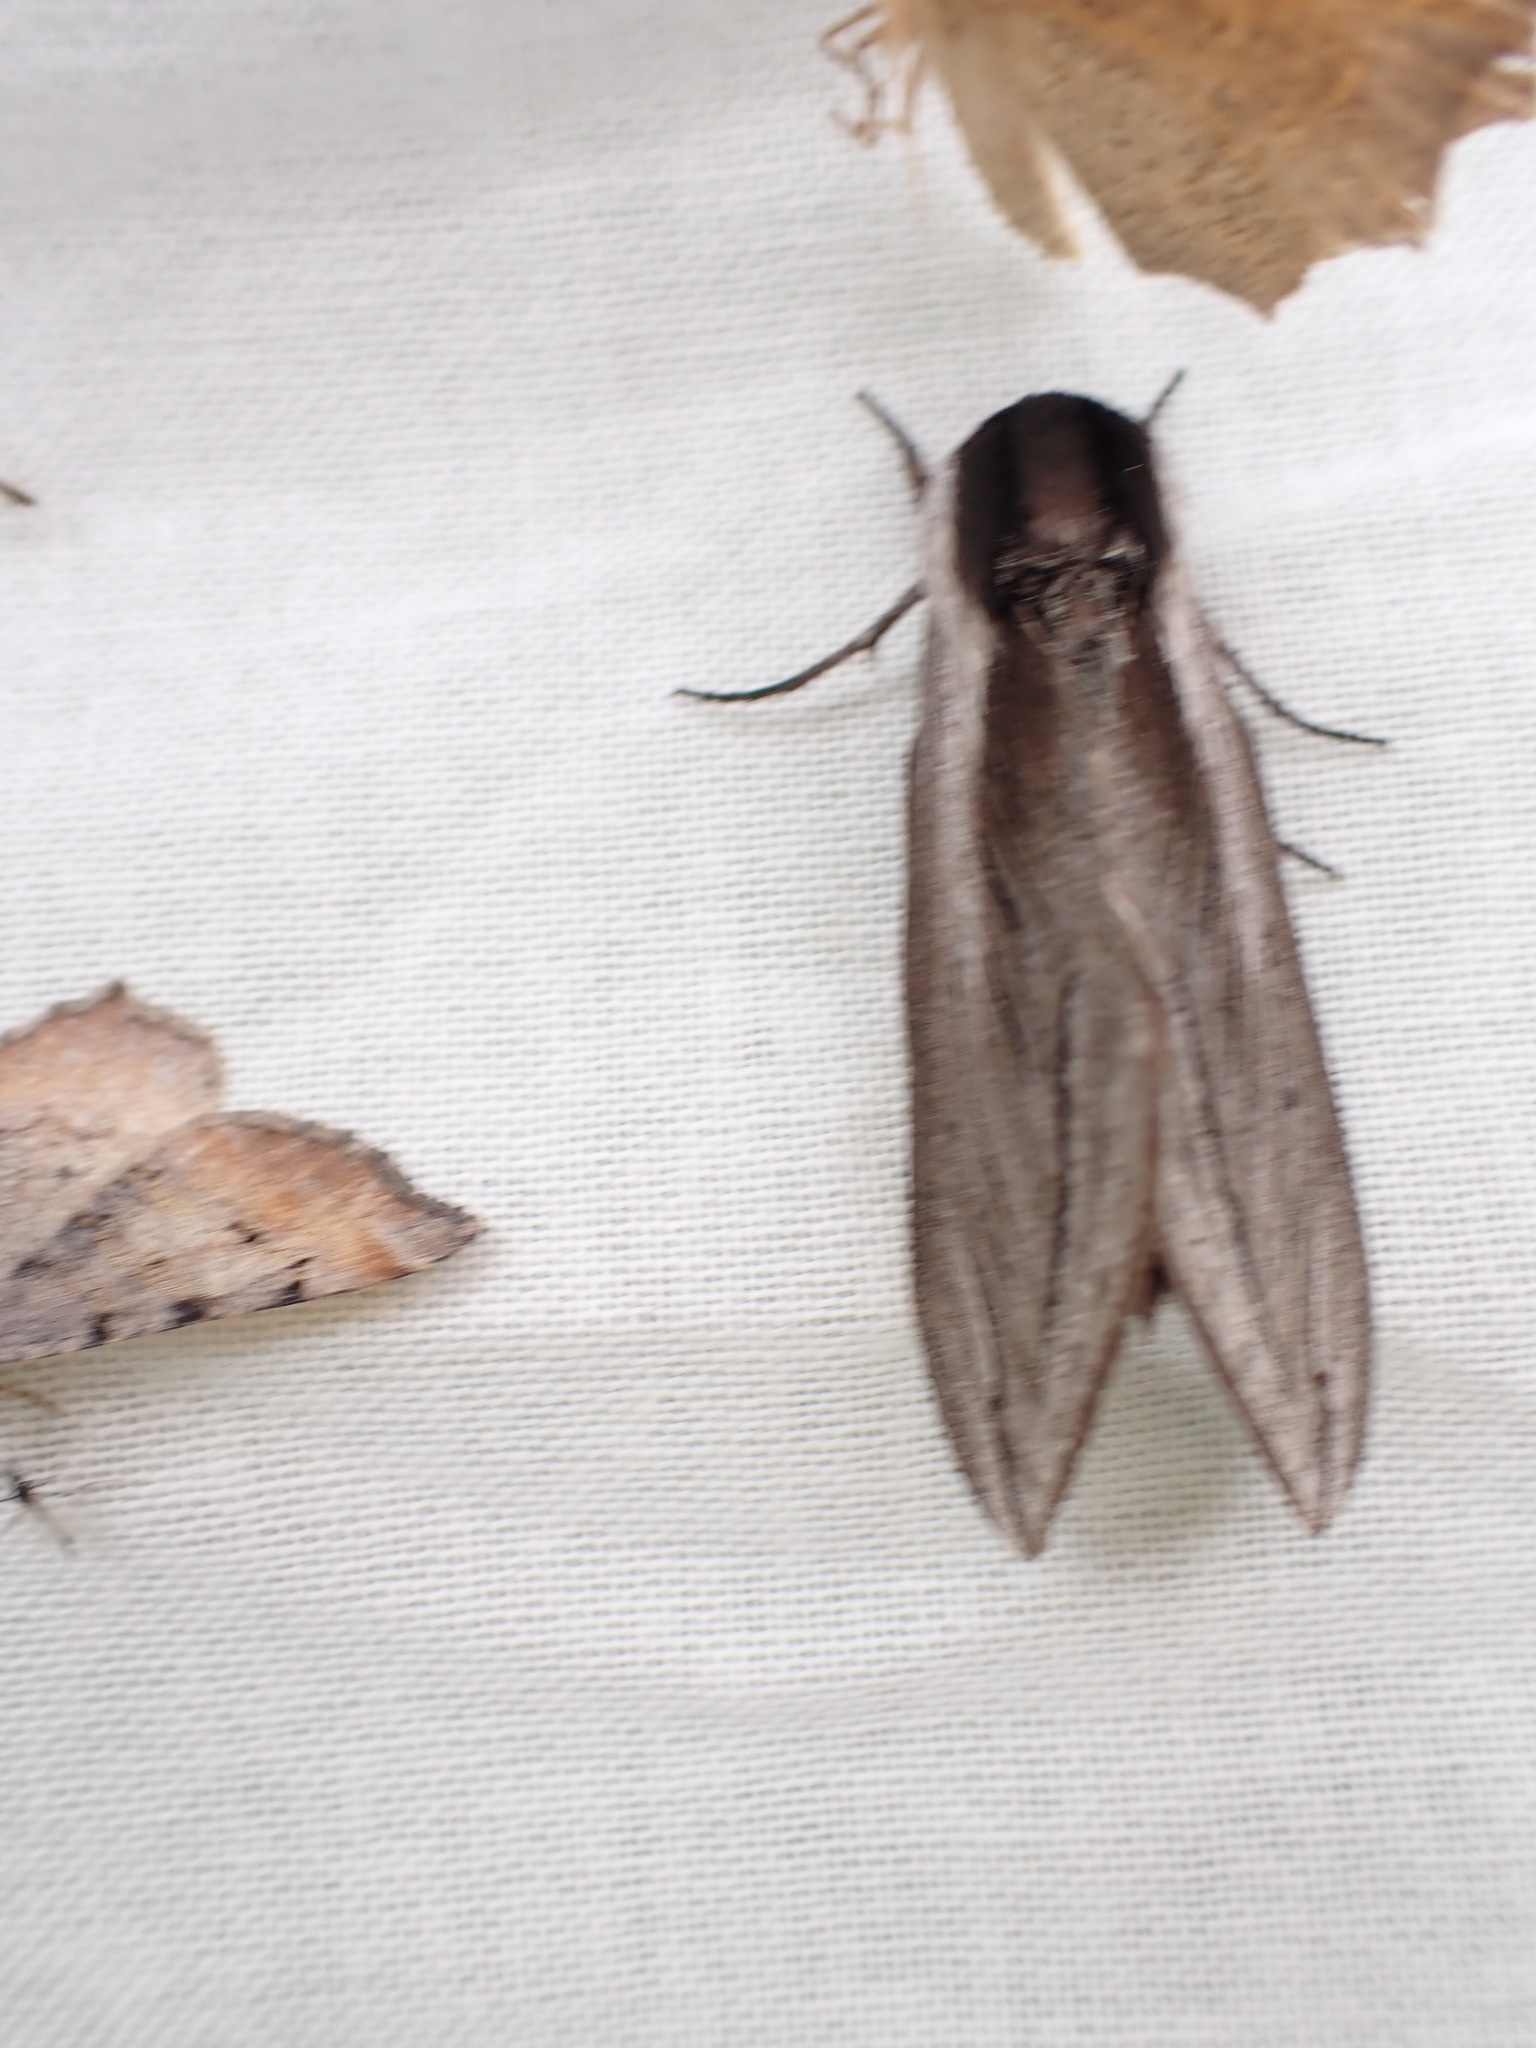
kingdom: Animalia
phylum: Arthropoda
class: Insecta
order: Lepidoptera
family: Sphingidae
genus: Sphinx
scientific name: Sphinx vashti
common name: Snowberry sphinx
